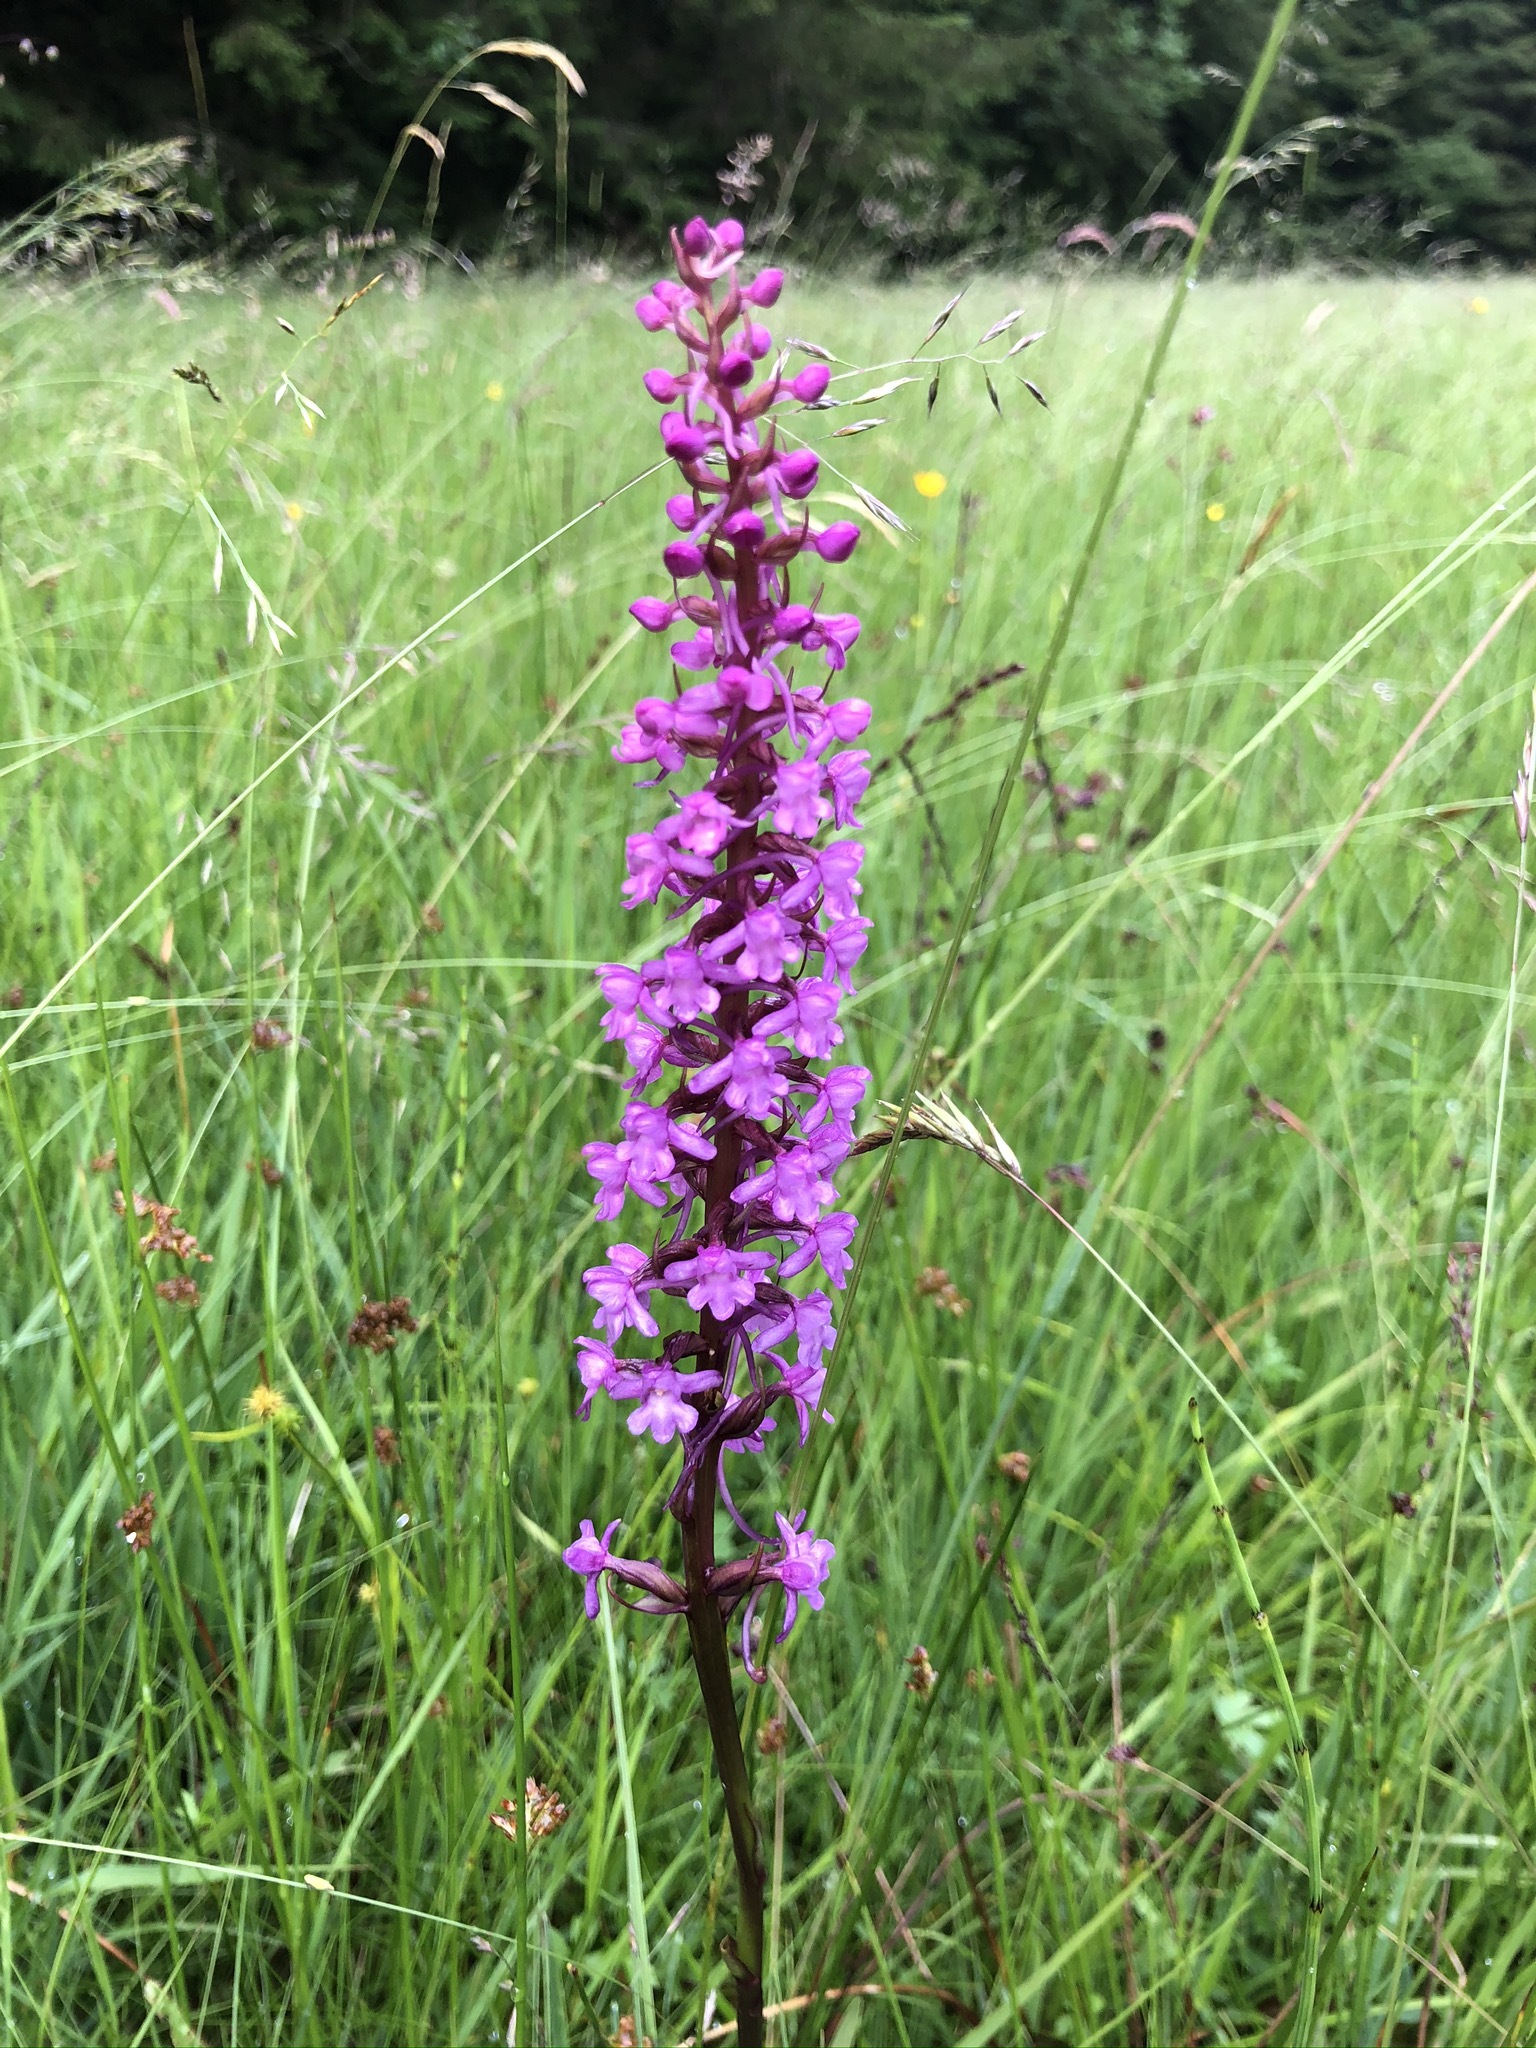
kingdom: Plantae
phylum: Tracheophyta
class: Liliopsida
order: Asparagales
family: Orchidaceae
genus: Gymnadenia
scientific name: Gymnadenia conopsea
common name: Fragrant orchid
